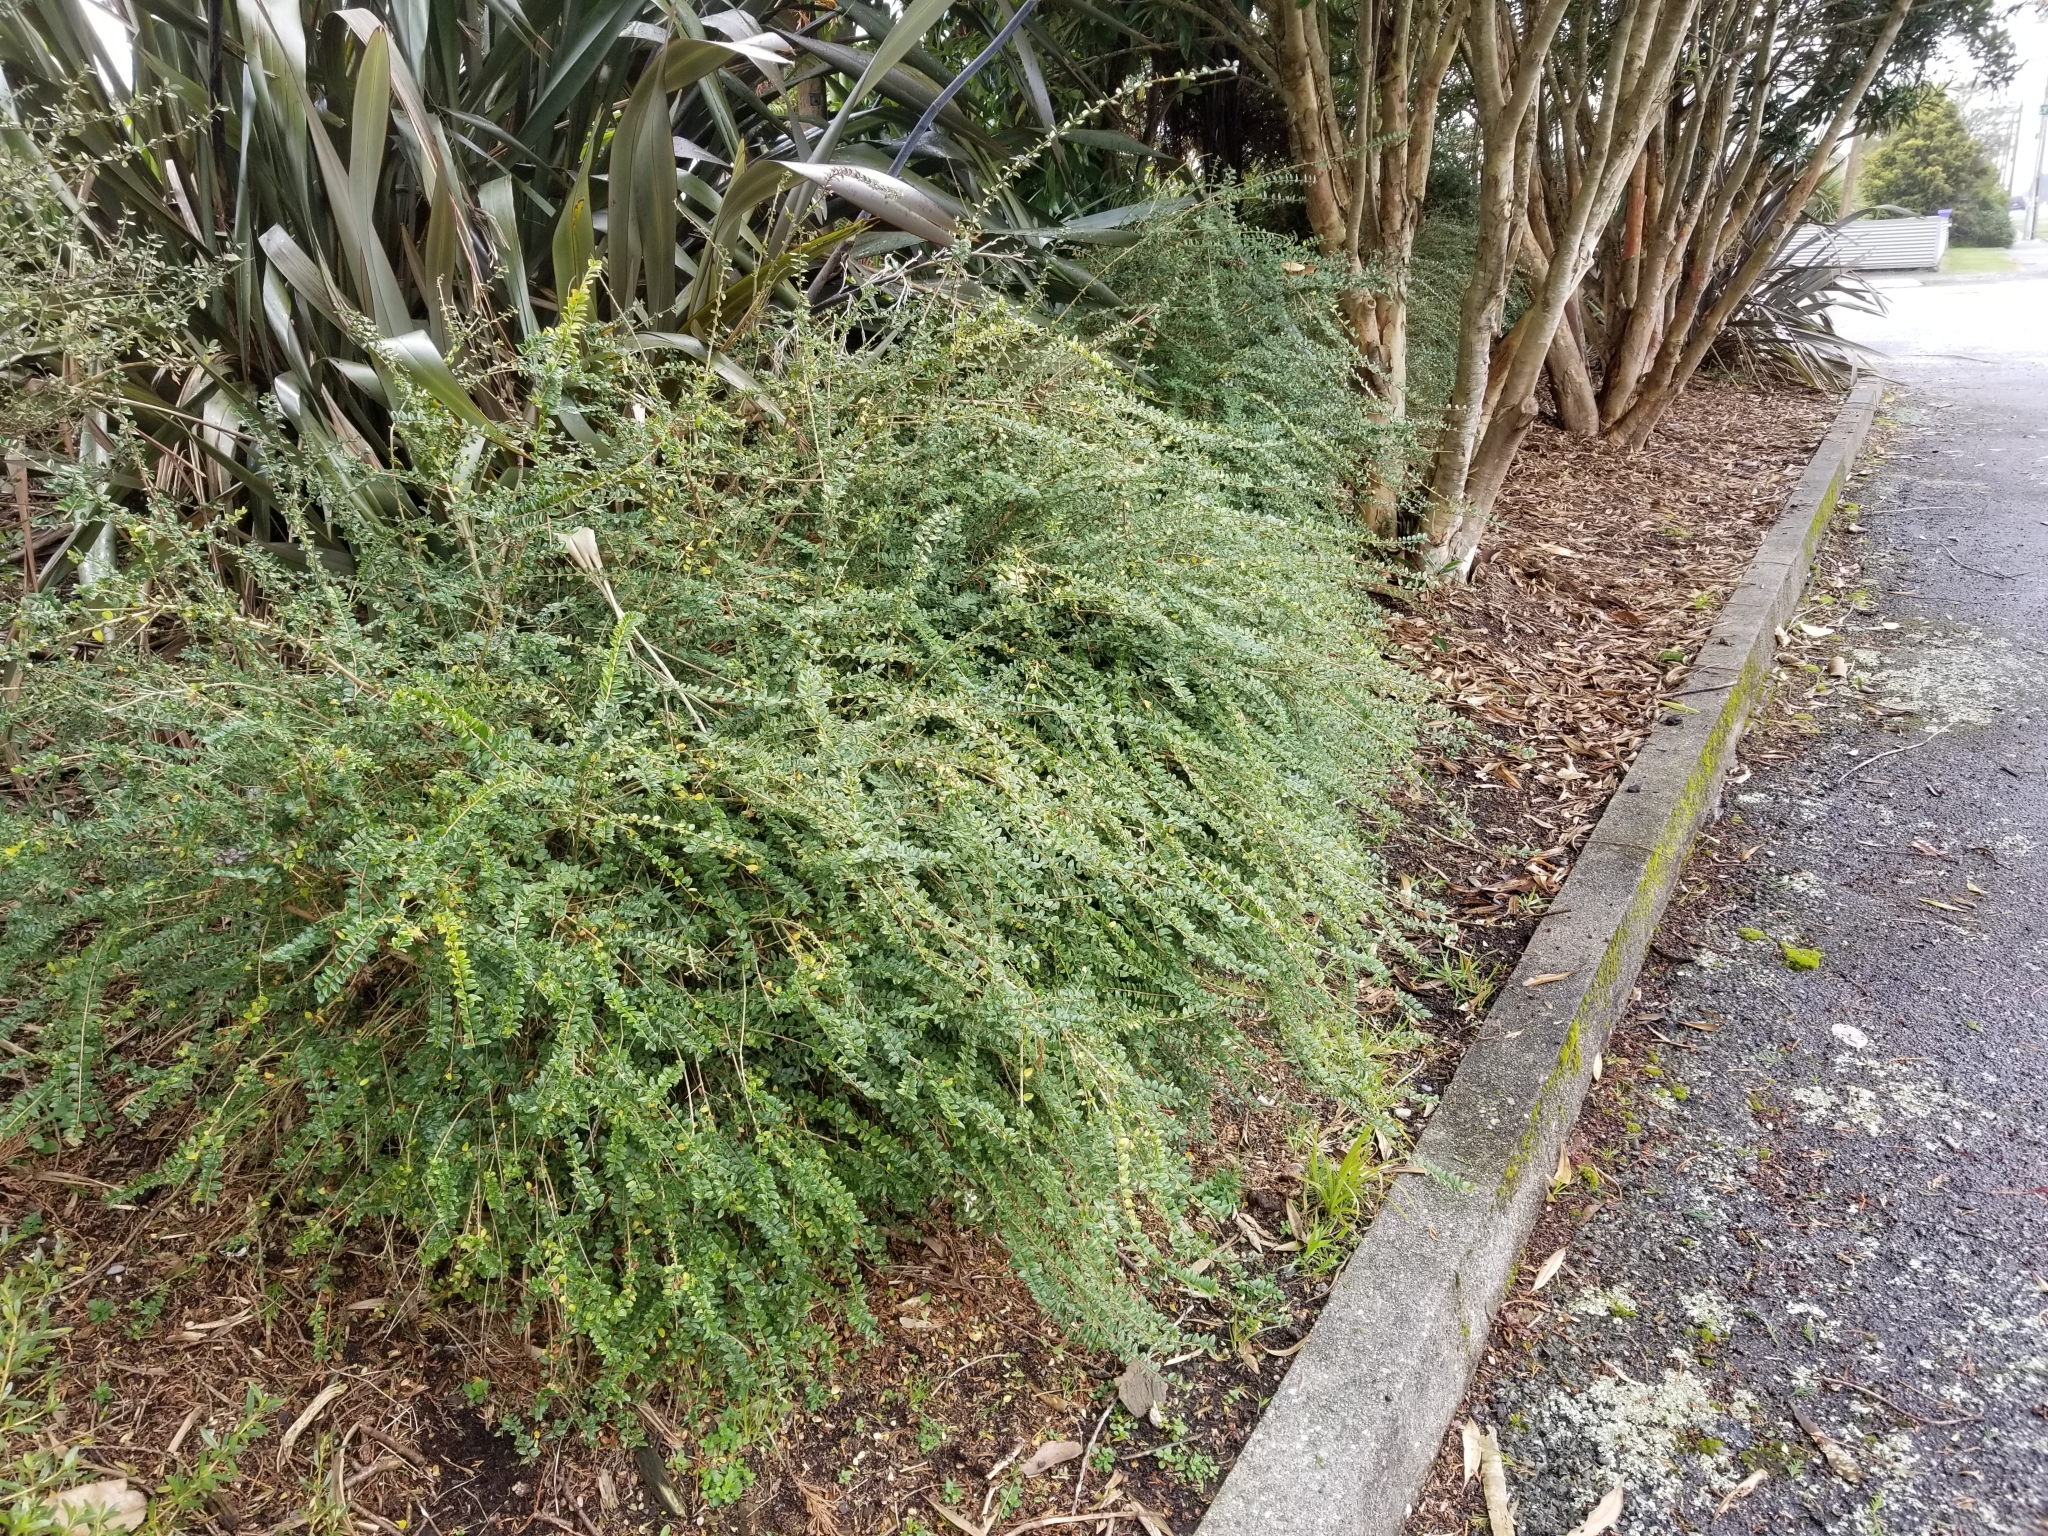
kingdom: Plantae
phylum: Tracheophyta
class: Magnoliopsida
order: Dipsacales
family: Caprifoliaceae
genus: Lonicera
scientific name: Lonicera pileata
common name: Box-leaved honeysuckle
